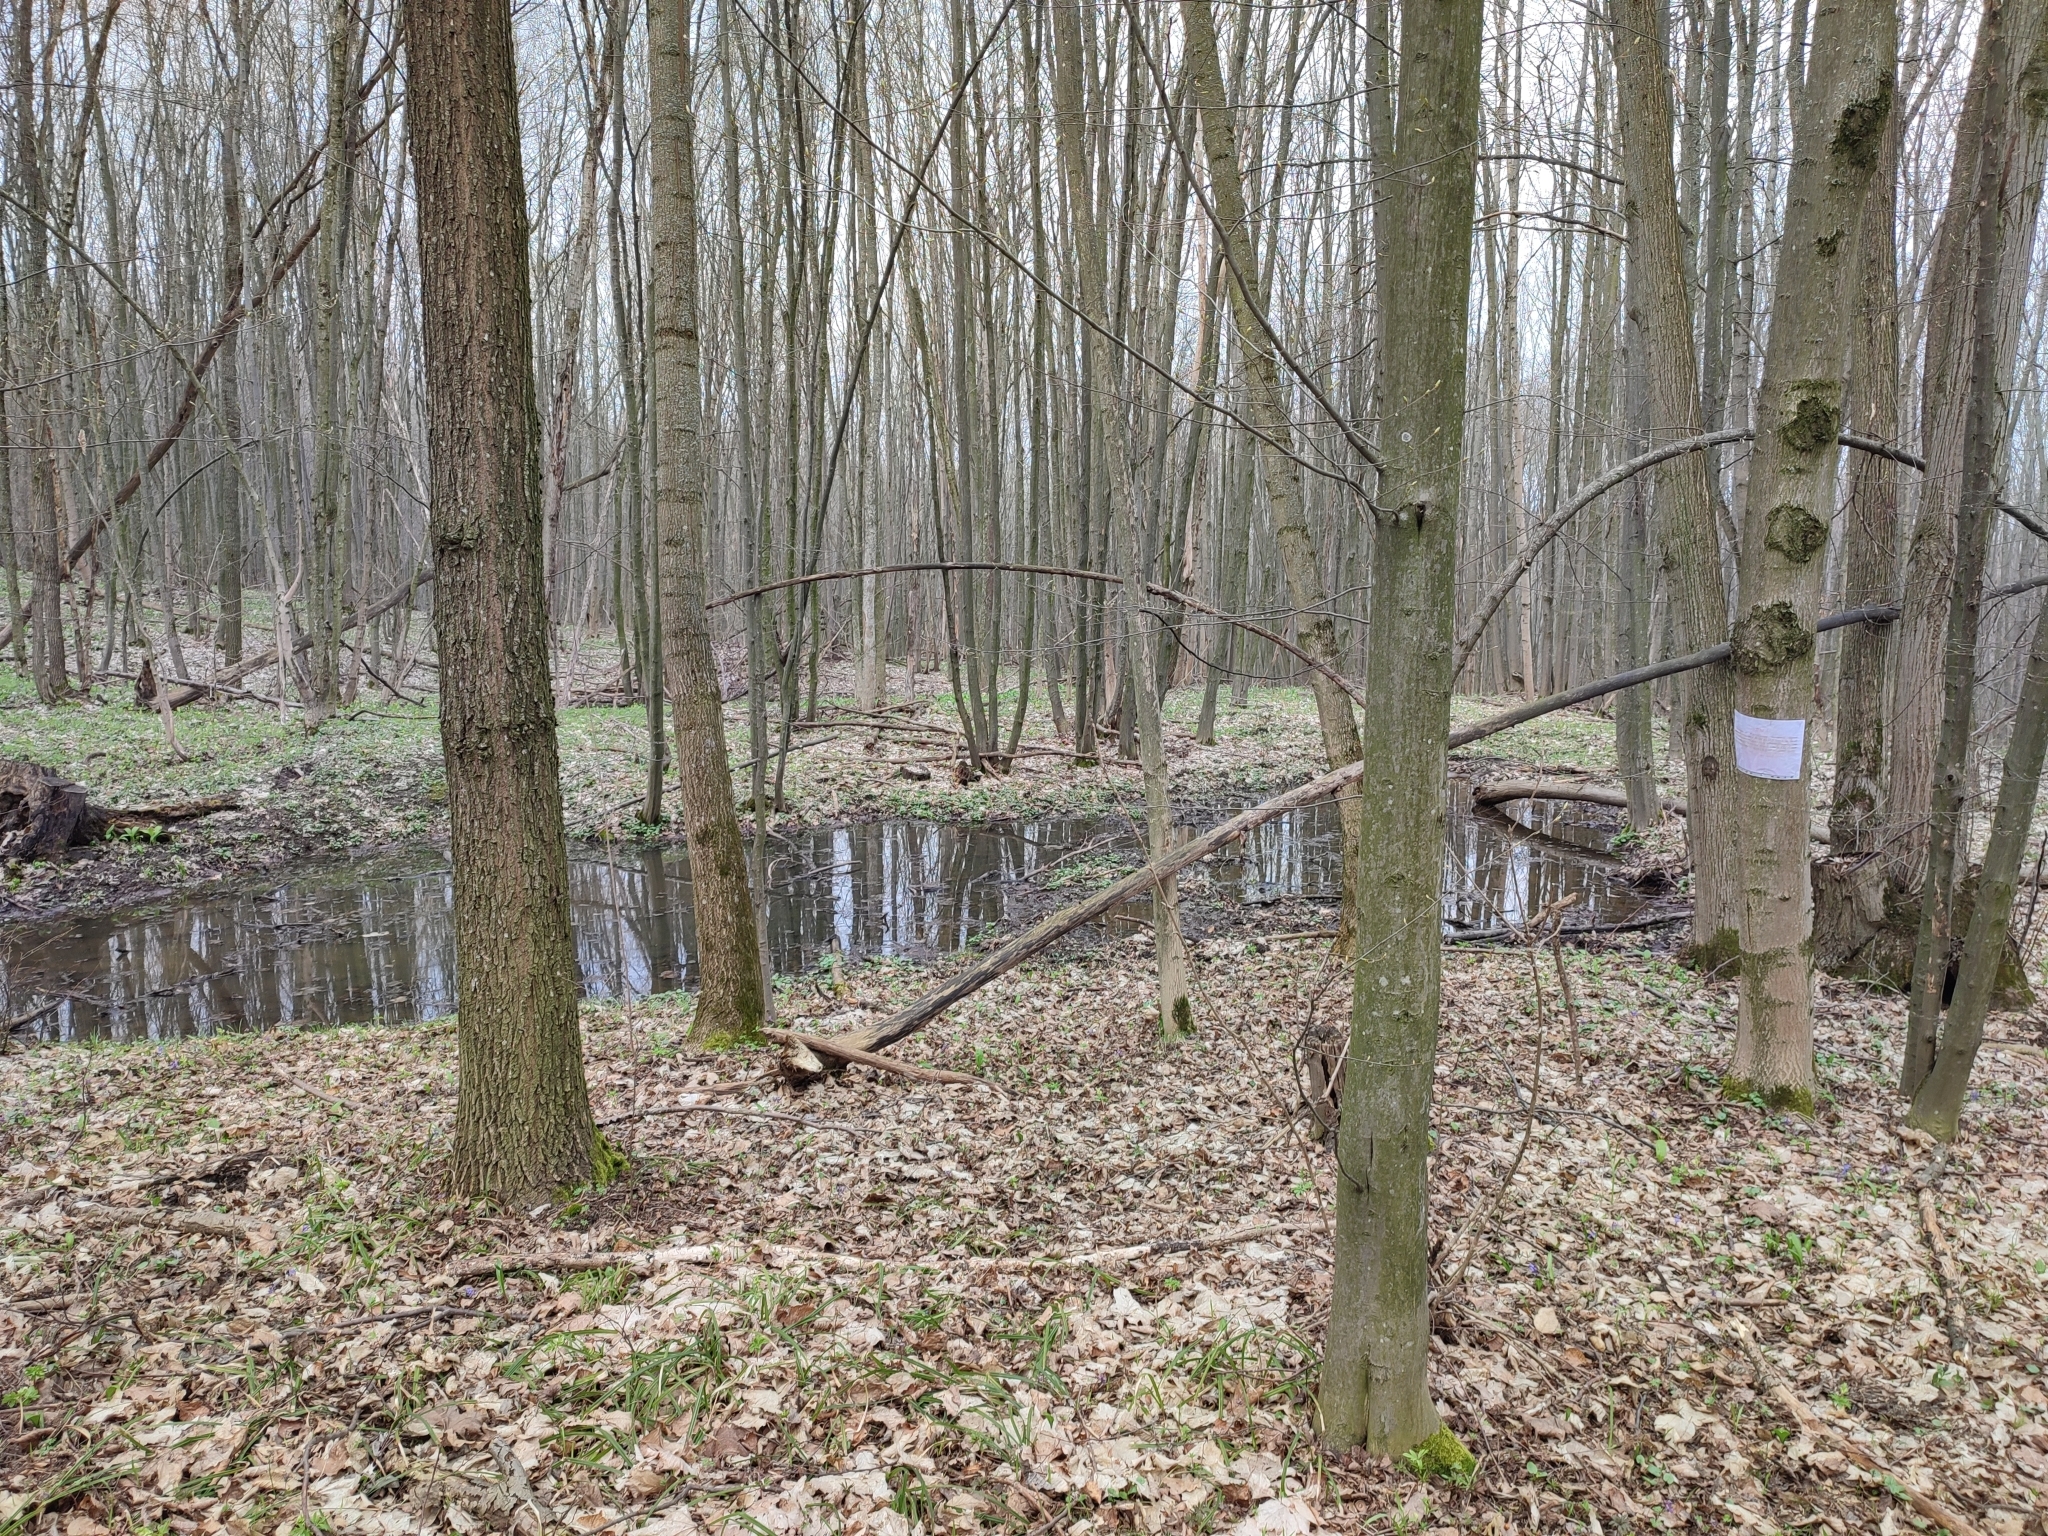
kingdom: Plantae
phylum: Tracheophyta
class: Magnoliopsida
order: Fagales
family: Betulaceae
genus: Carpinus
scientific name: Carpinus betulus
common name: Hornbeam
